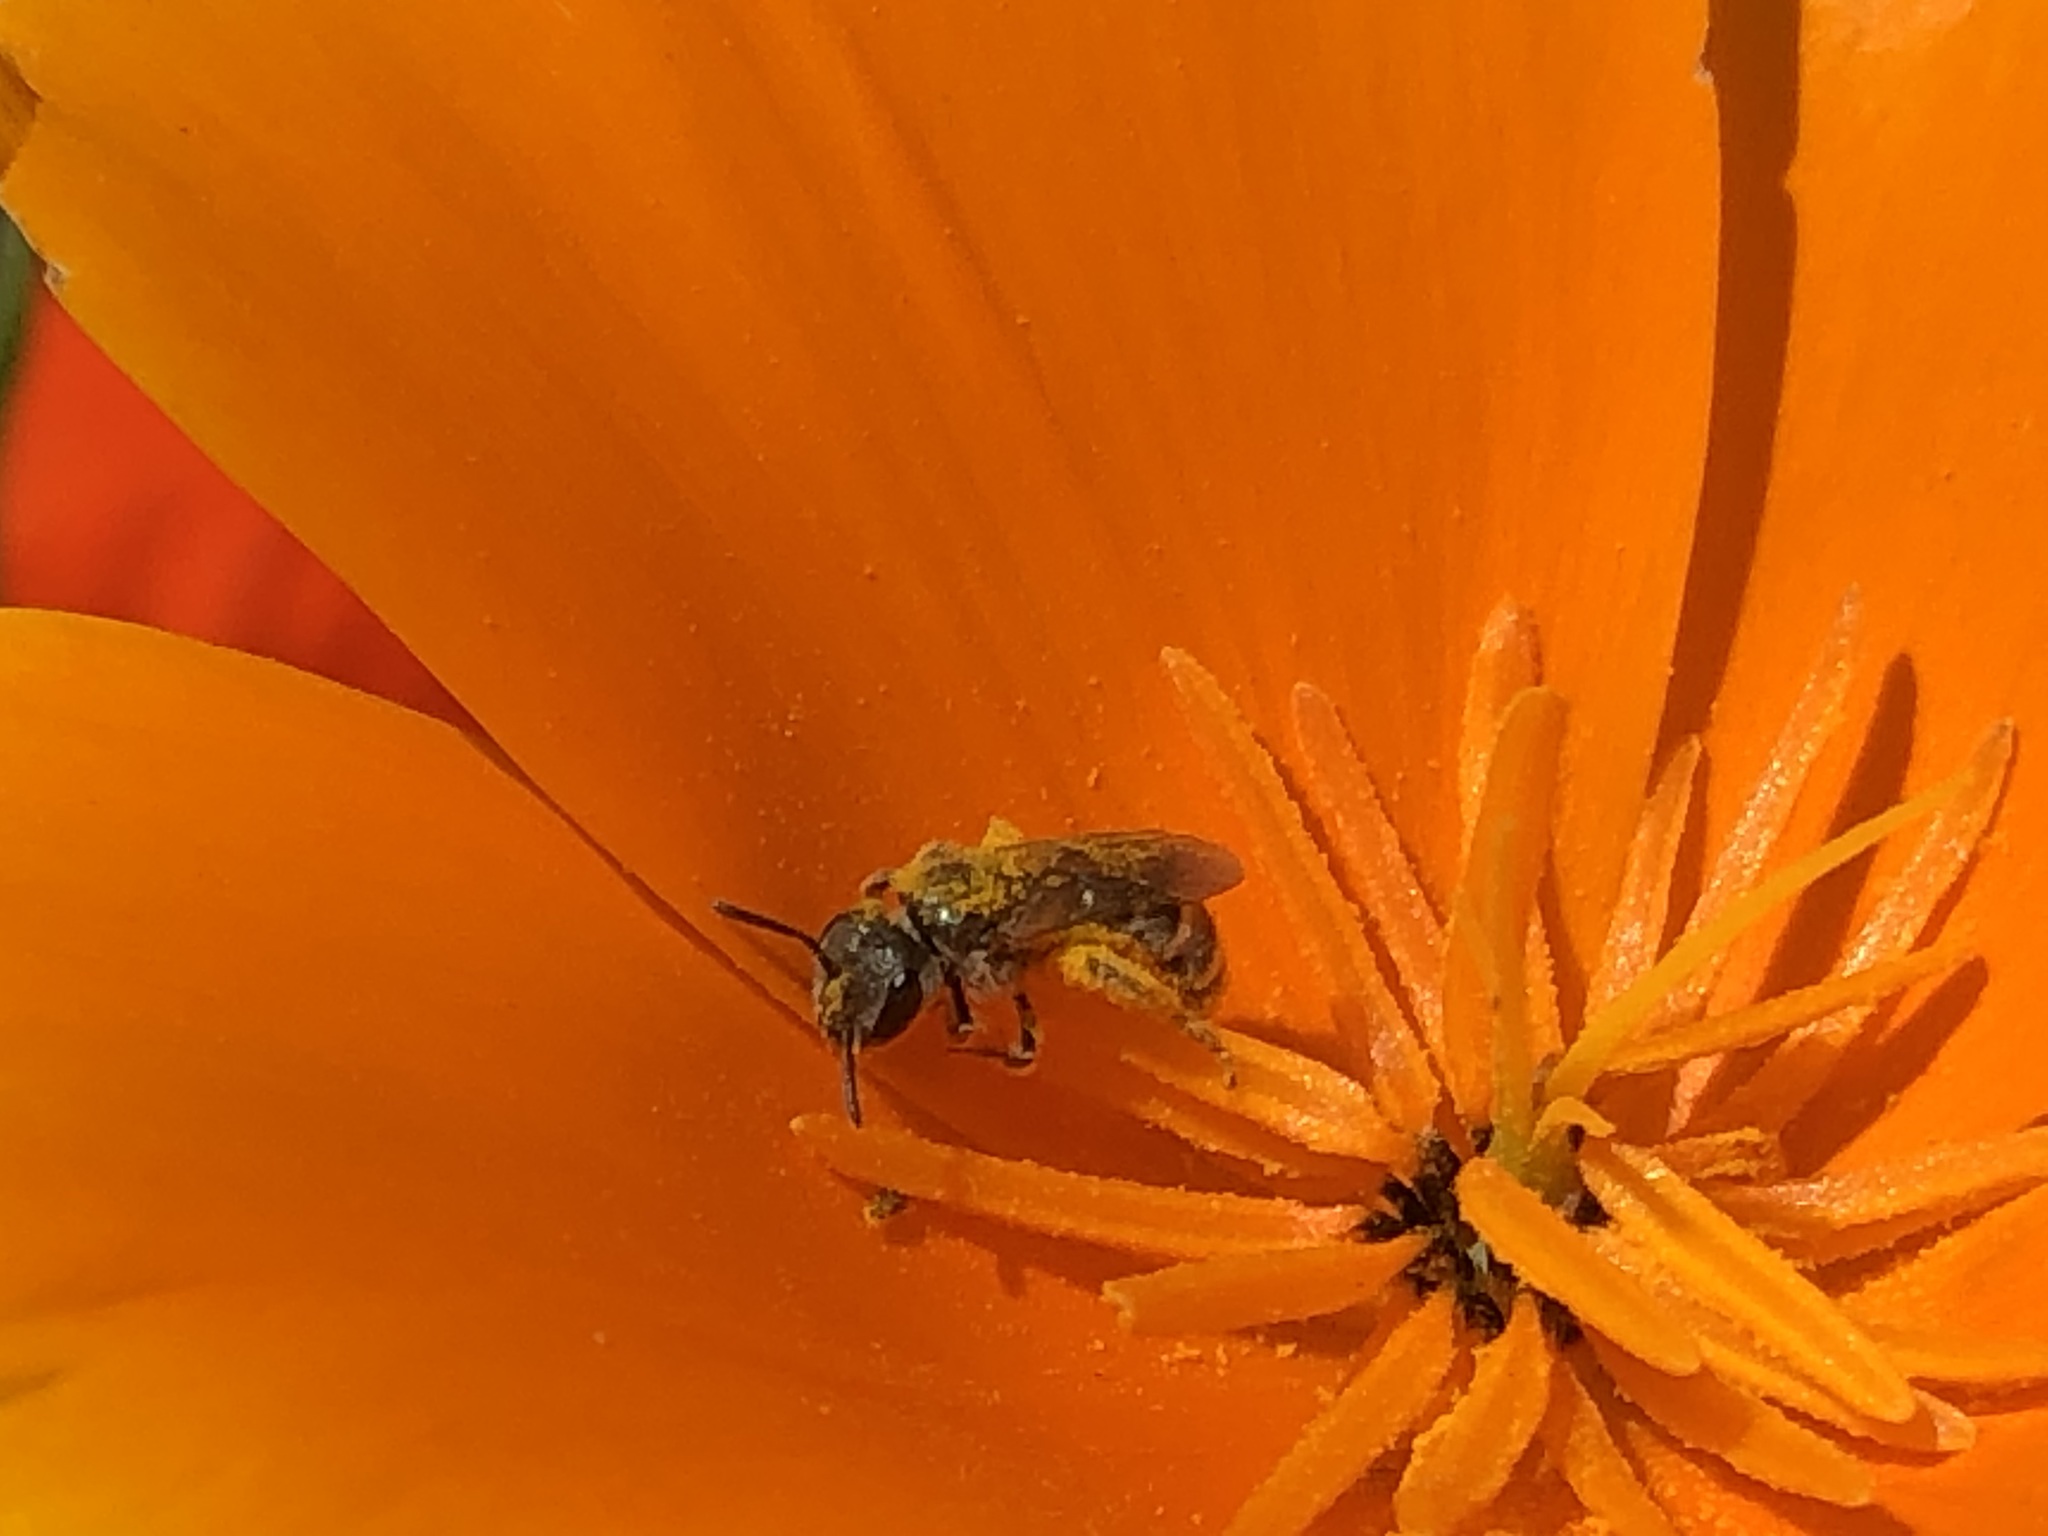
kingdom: Animalia
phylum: Arthropoda
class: Insecta
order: Hymenoptera
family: Halictidae
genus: Halictus
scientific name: Halictus tripartitus
